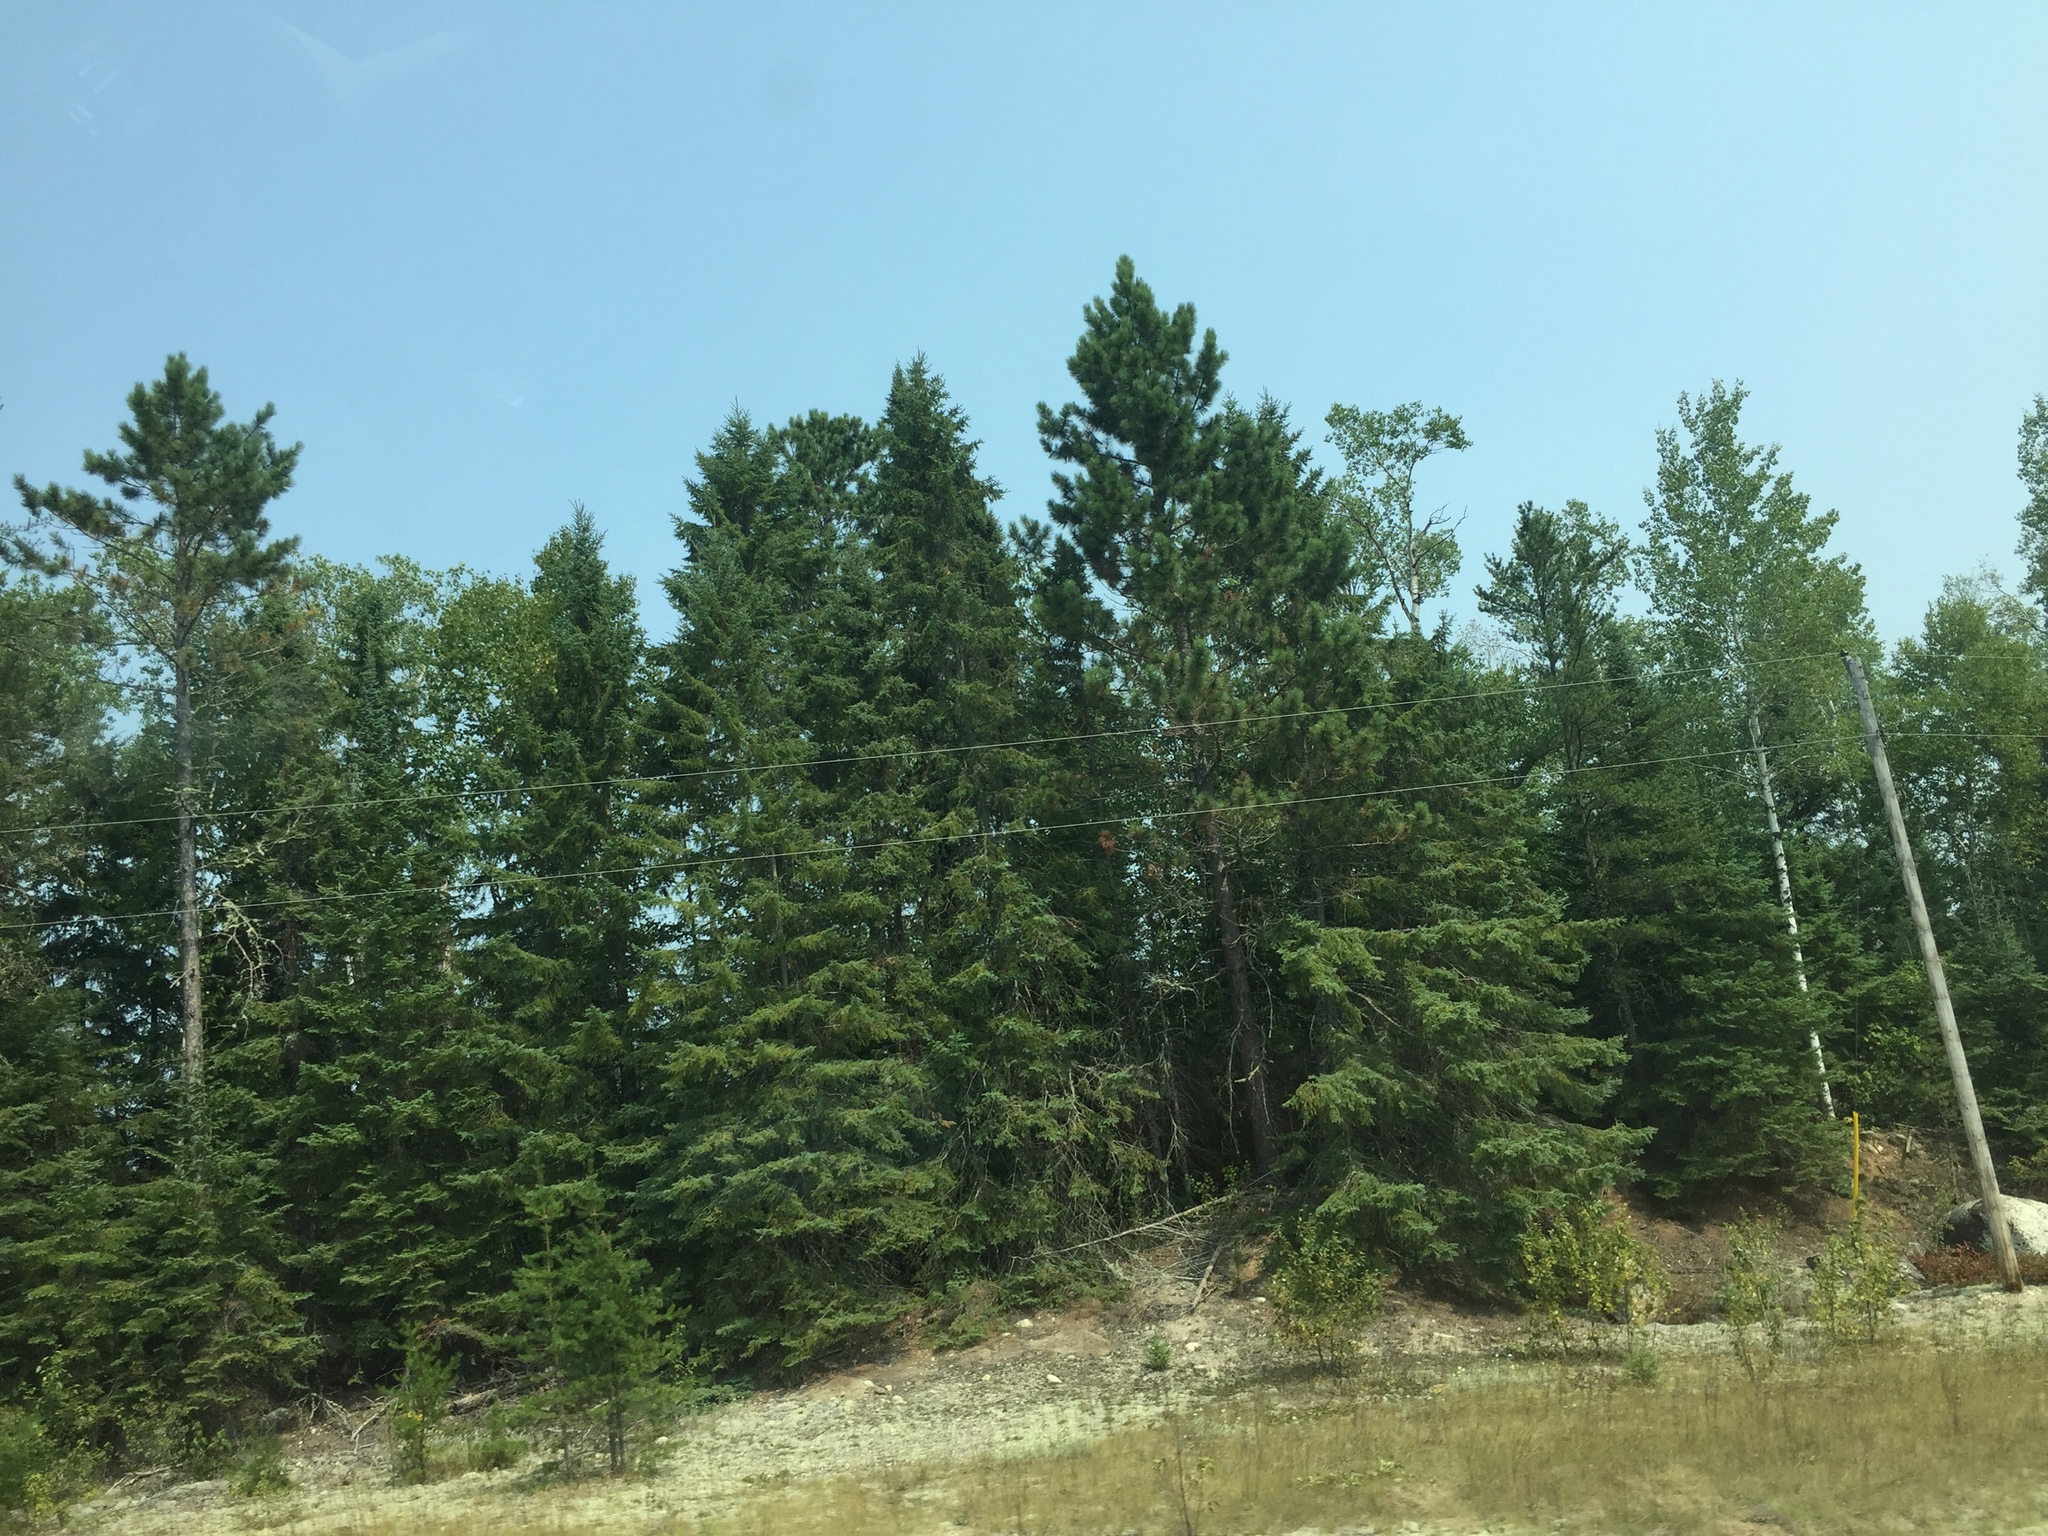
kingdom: Plantae
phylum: Tracheophyta
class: Pinopsida
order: Pinales
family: Pinaceae
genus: Pinus
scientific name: Pinus resinosa
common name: Norway pine
